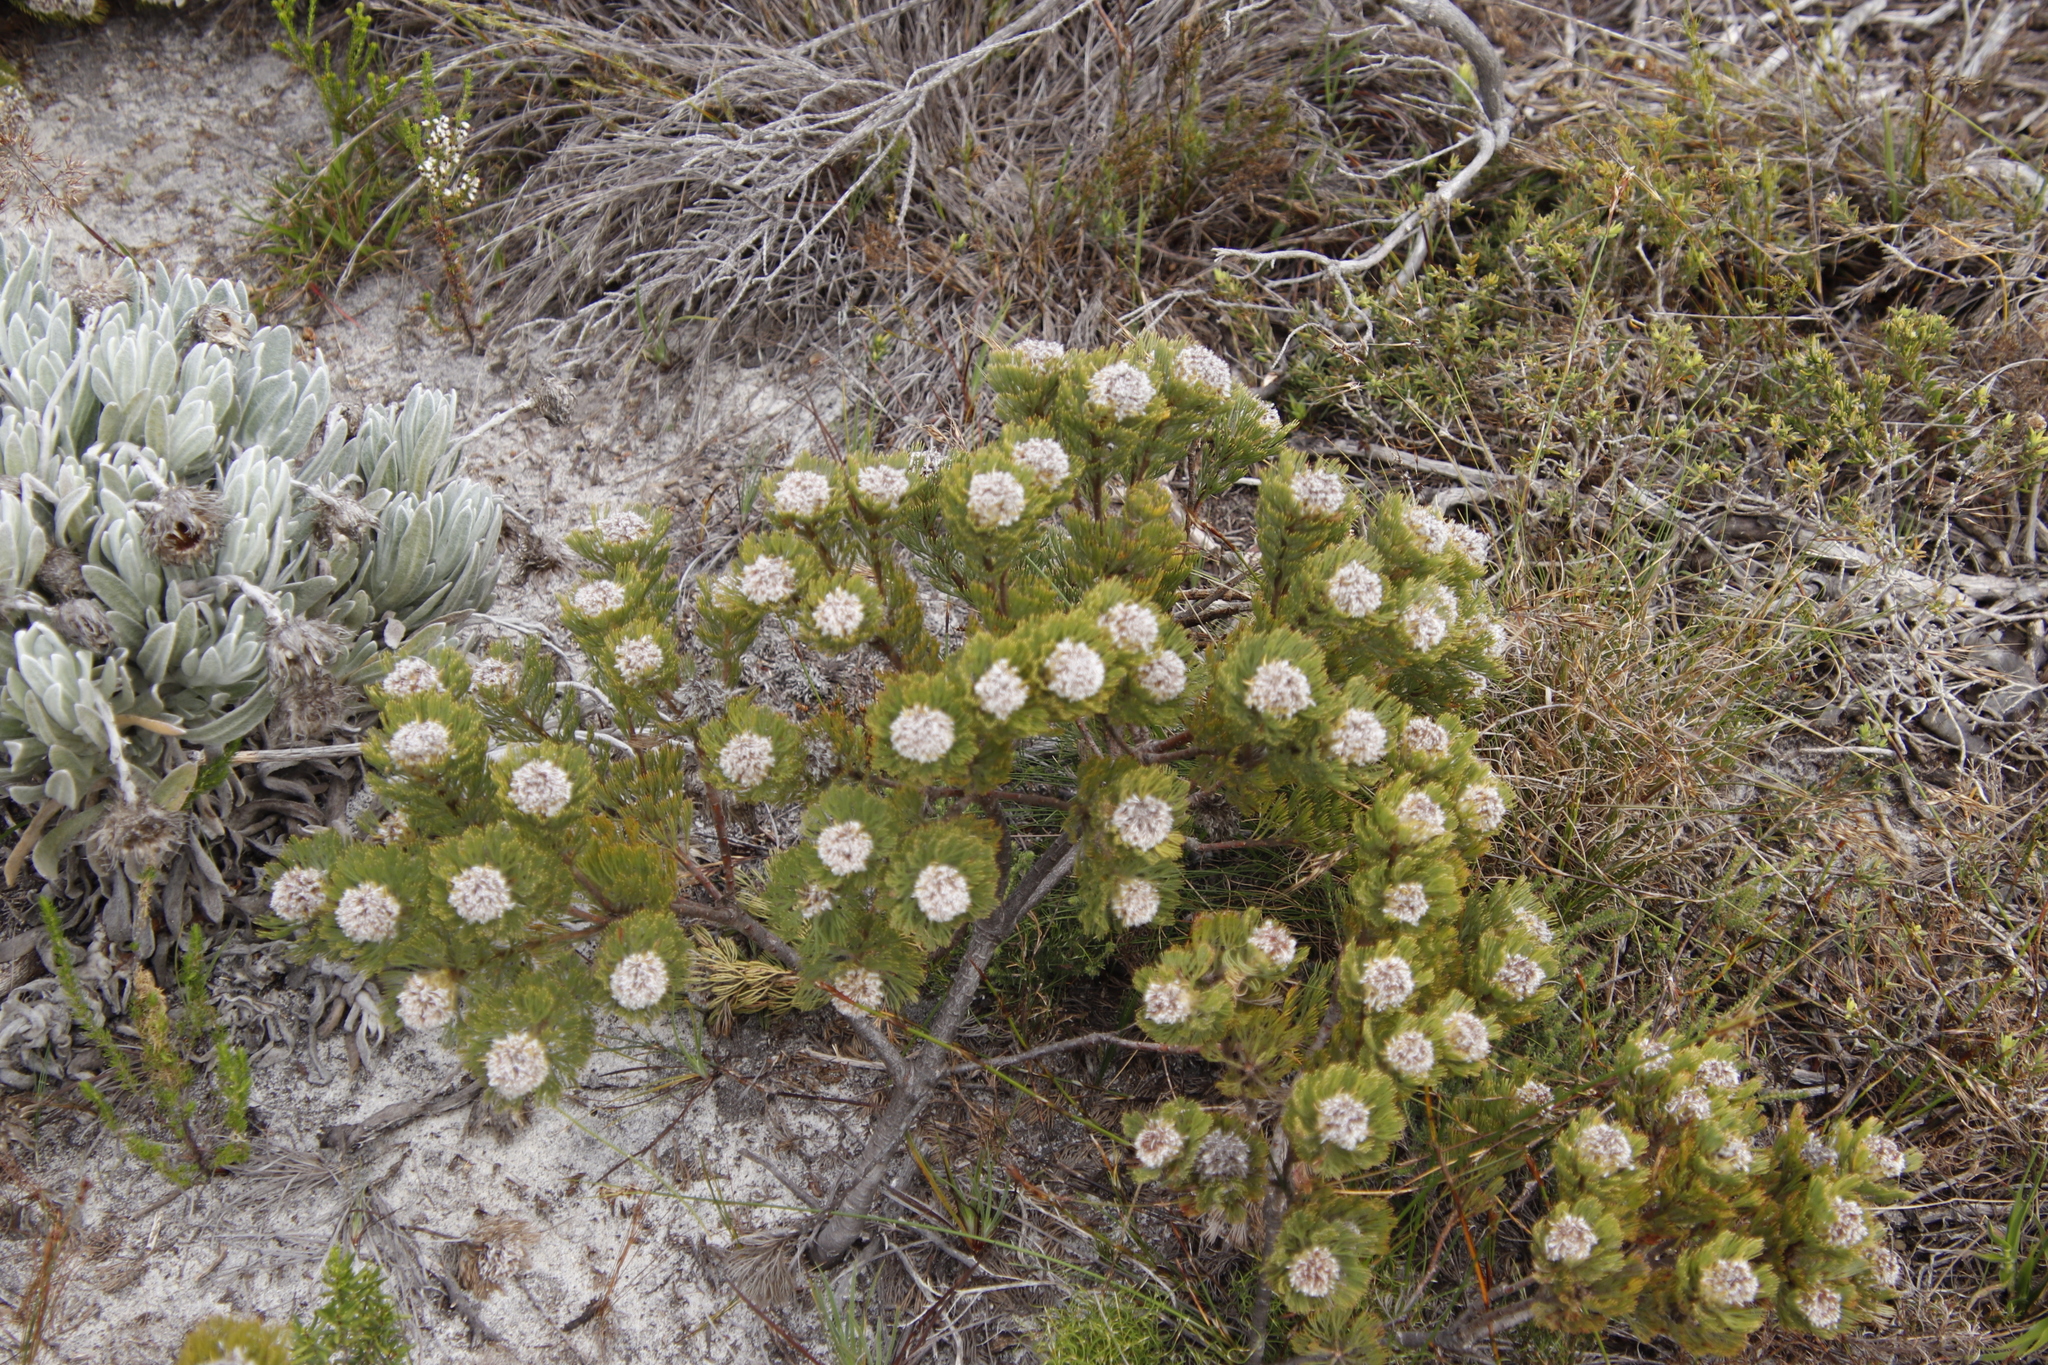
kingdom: Plantae
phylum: Tracheophyta
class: Magnoliopsida
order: Proteales
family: Proteaceae
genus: Serruria
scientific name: Serruria villosa
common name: Golden spiderhead
